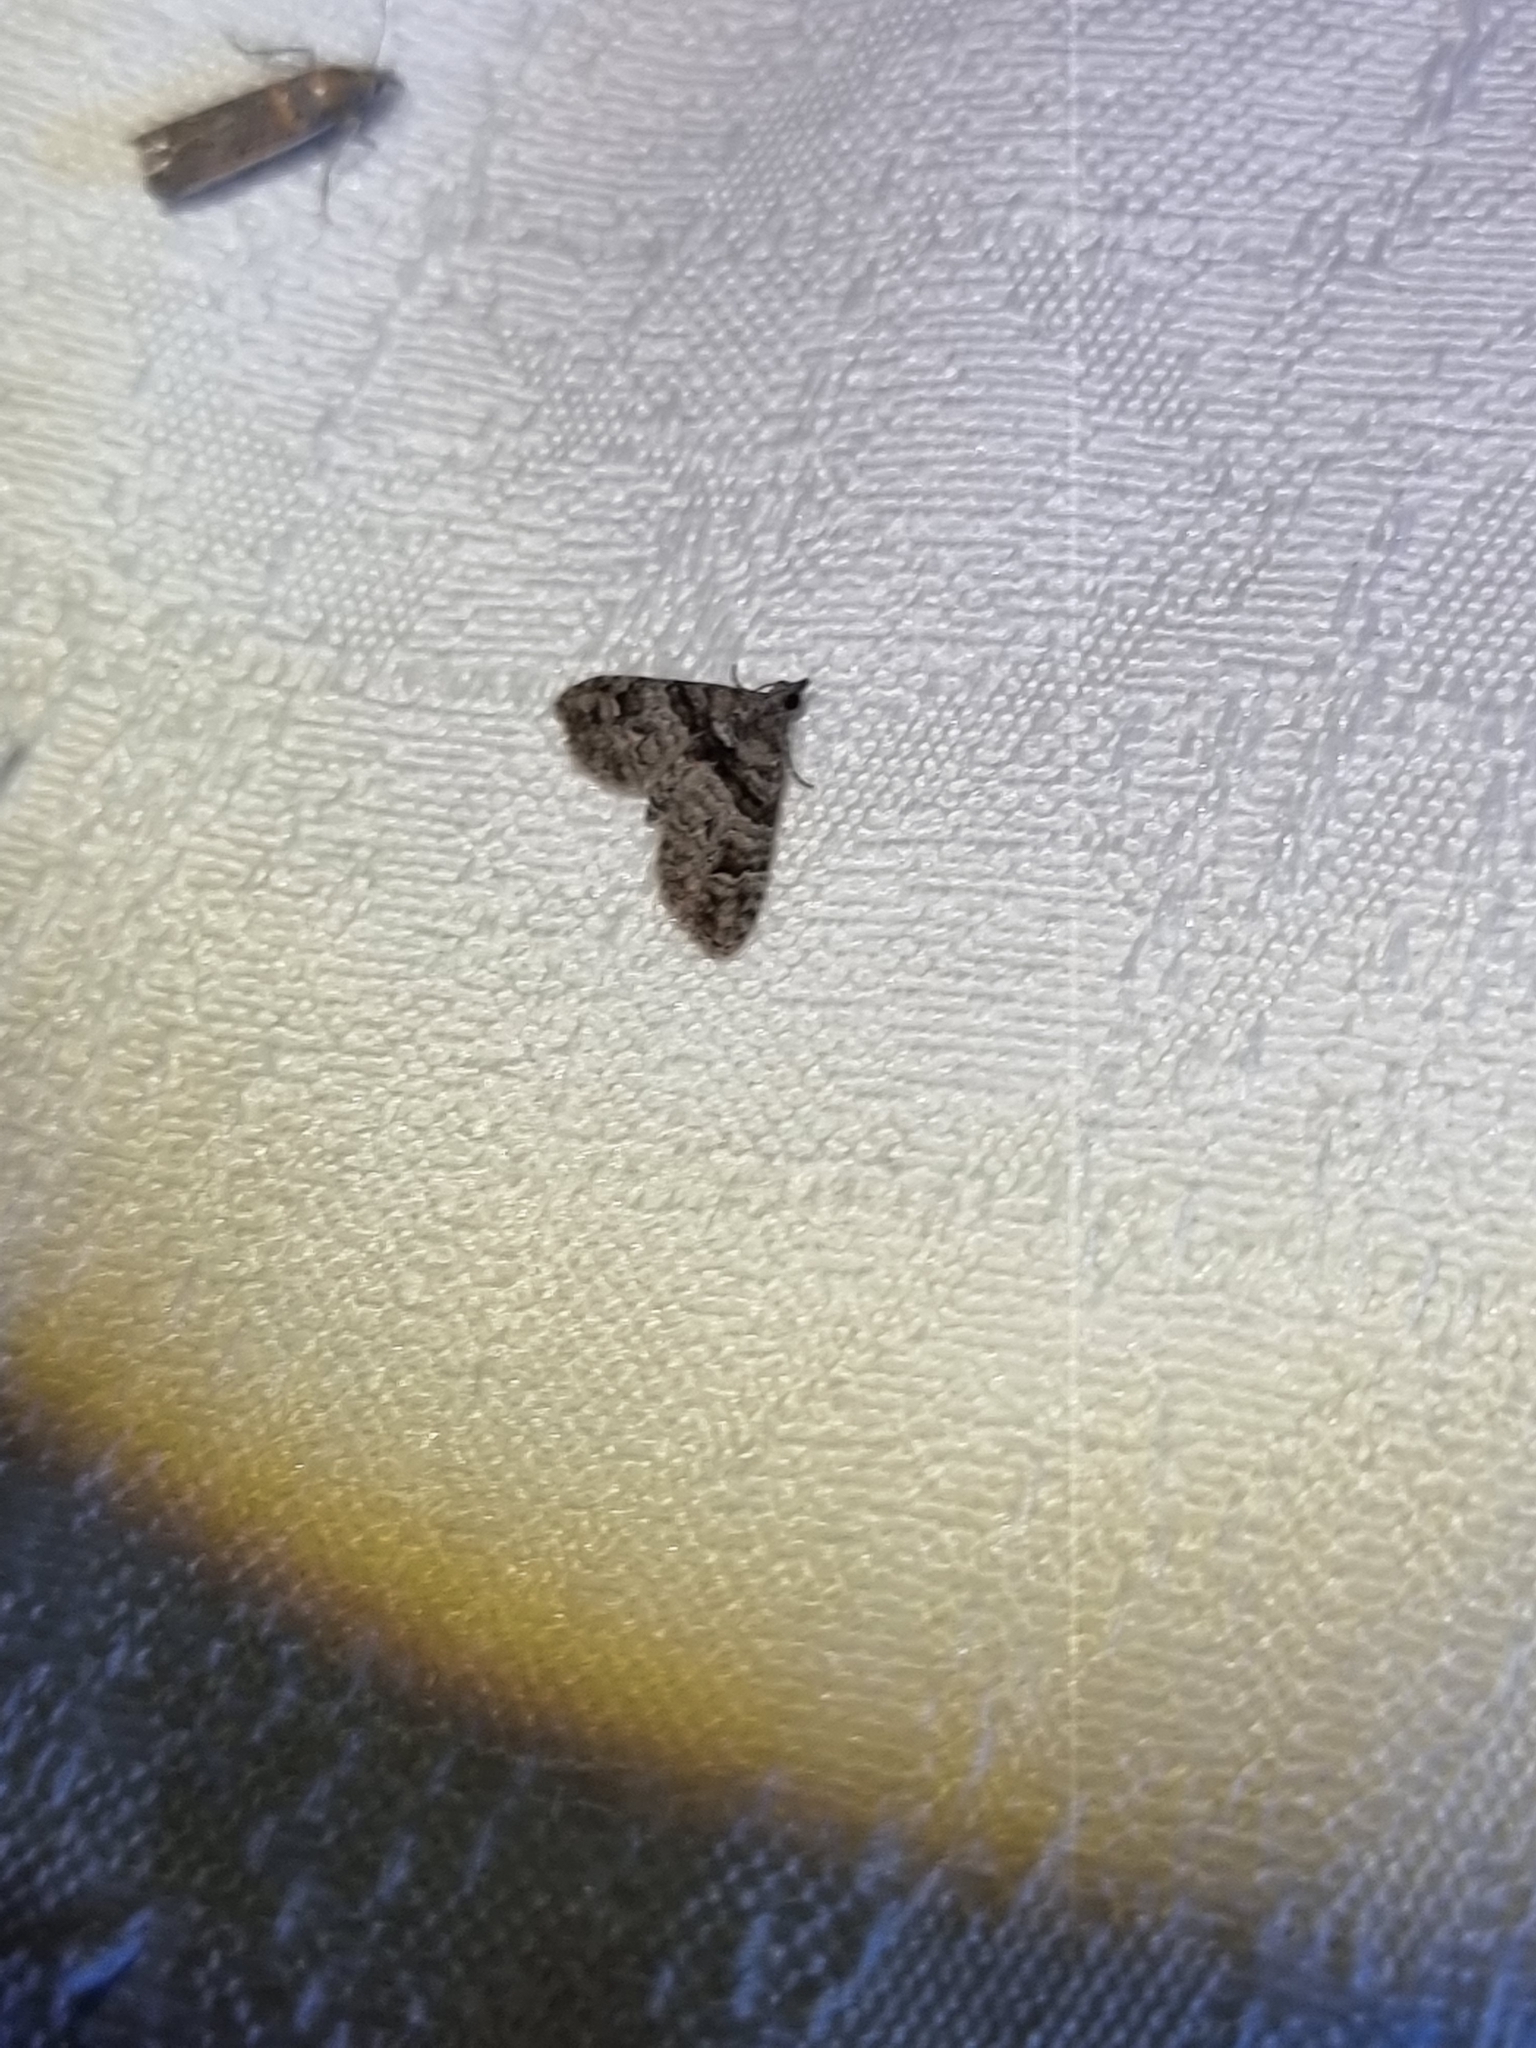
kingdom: Animalia
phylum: Arthropoda
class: Insecta
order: Lepidoptera
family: Geometridae
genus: Phrissogonus
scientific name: Phrissogonus laticostata
